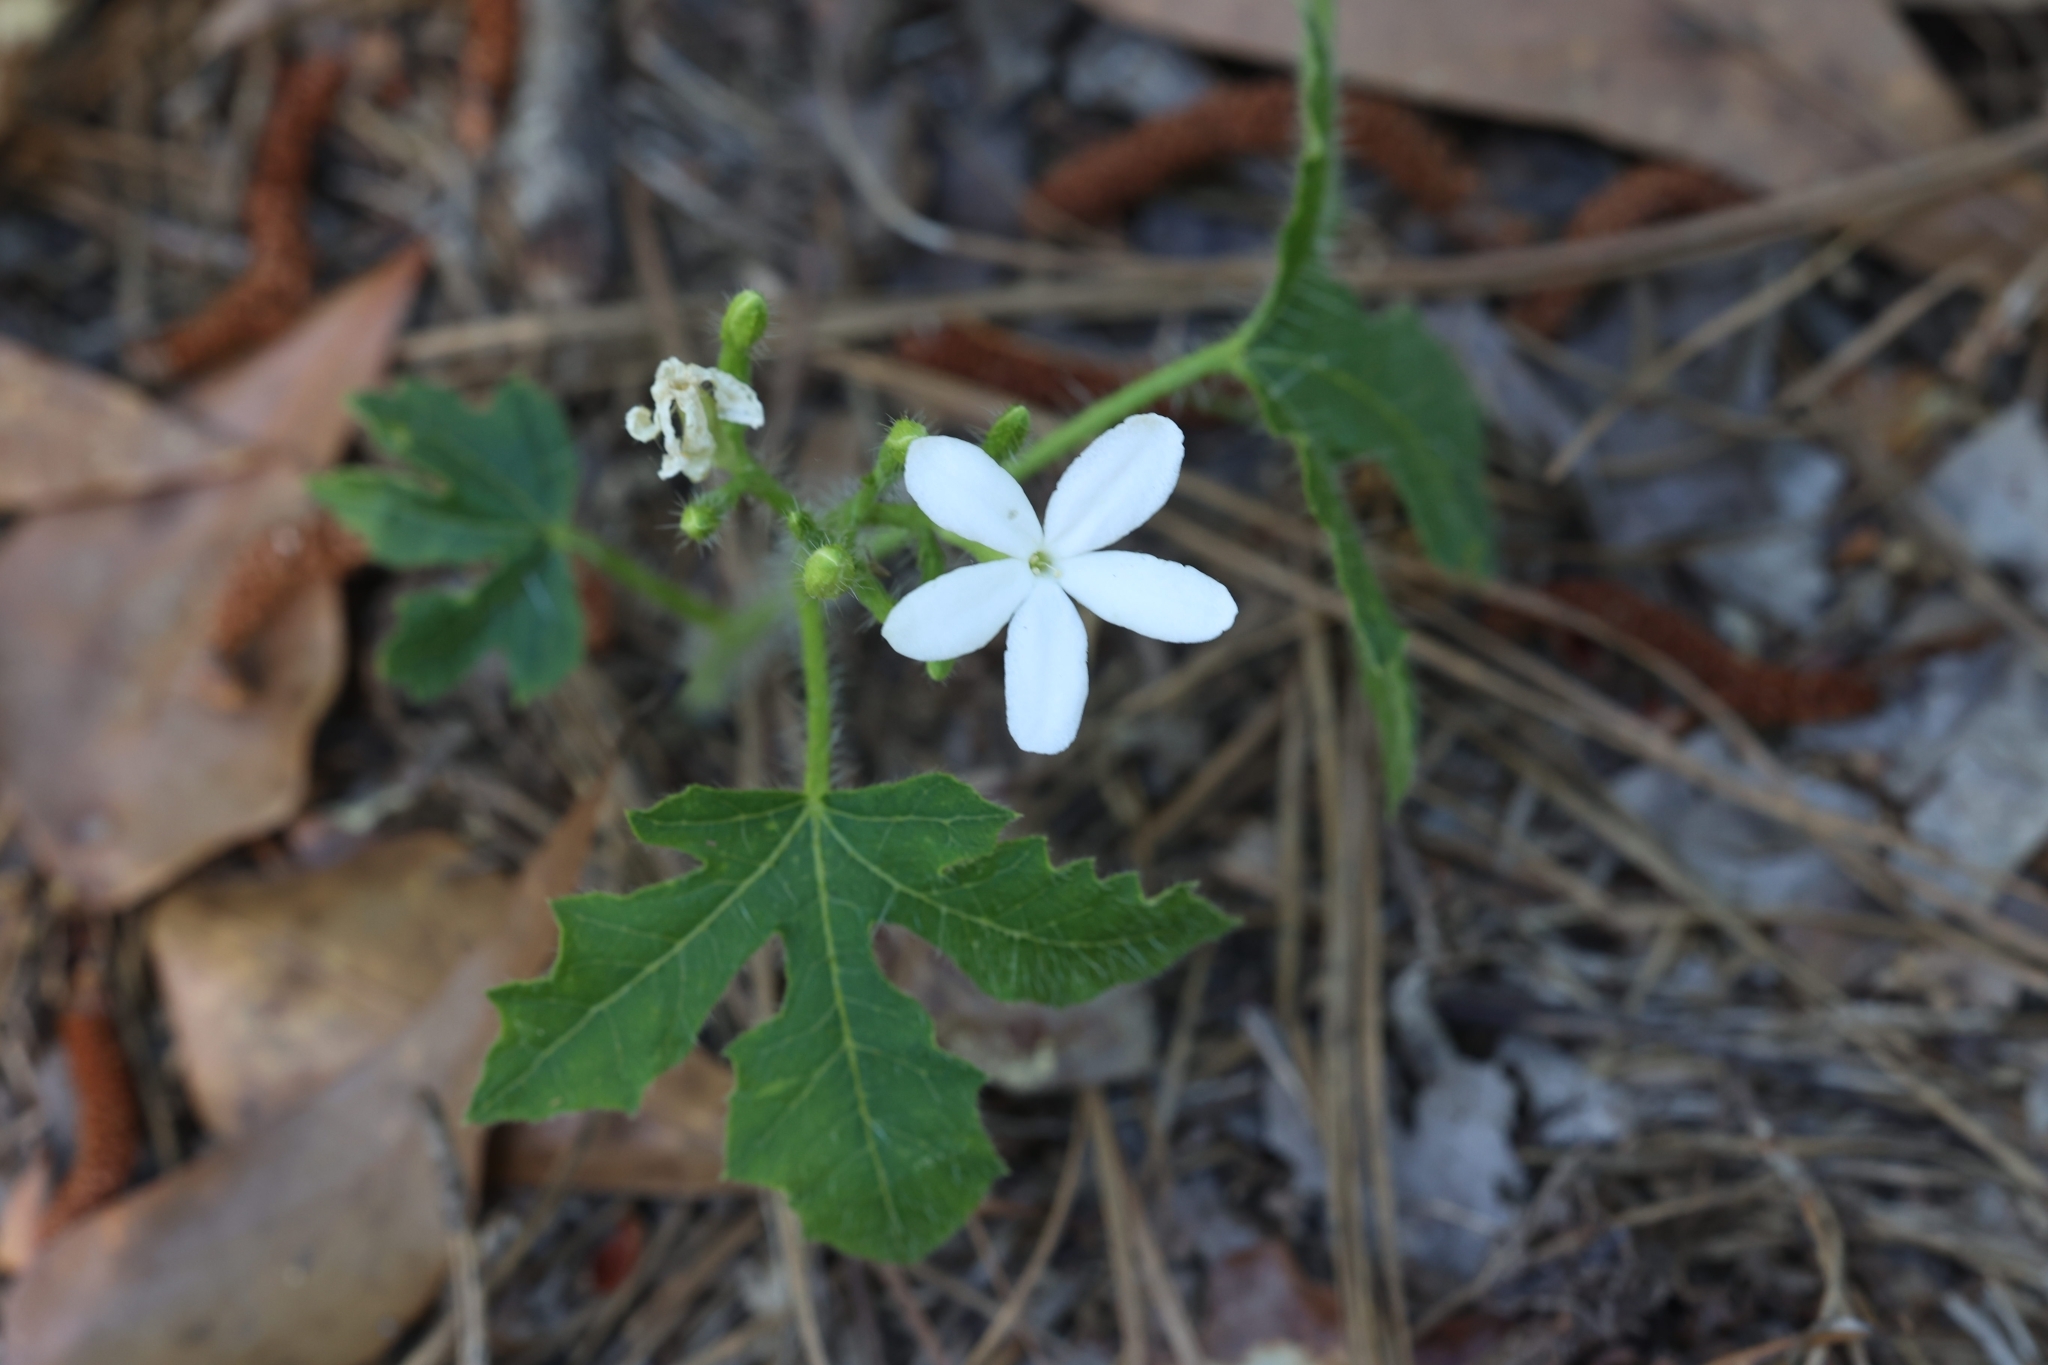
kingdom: Plantae
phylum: Tracheophyta
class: Magnoliopsida
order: Malpighiales
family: Euphorbiaceae
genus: Cnidoscolus
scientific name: Cnidoscolus stimulosus
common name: Bull-nettle
